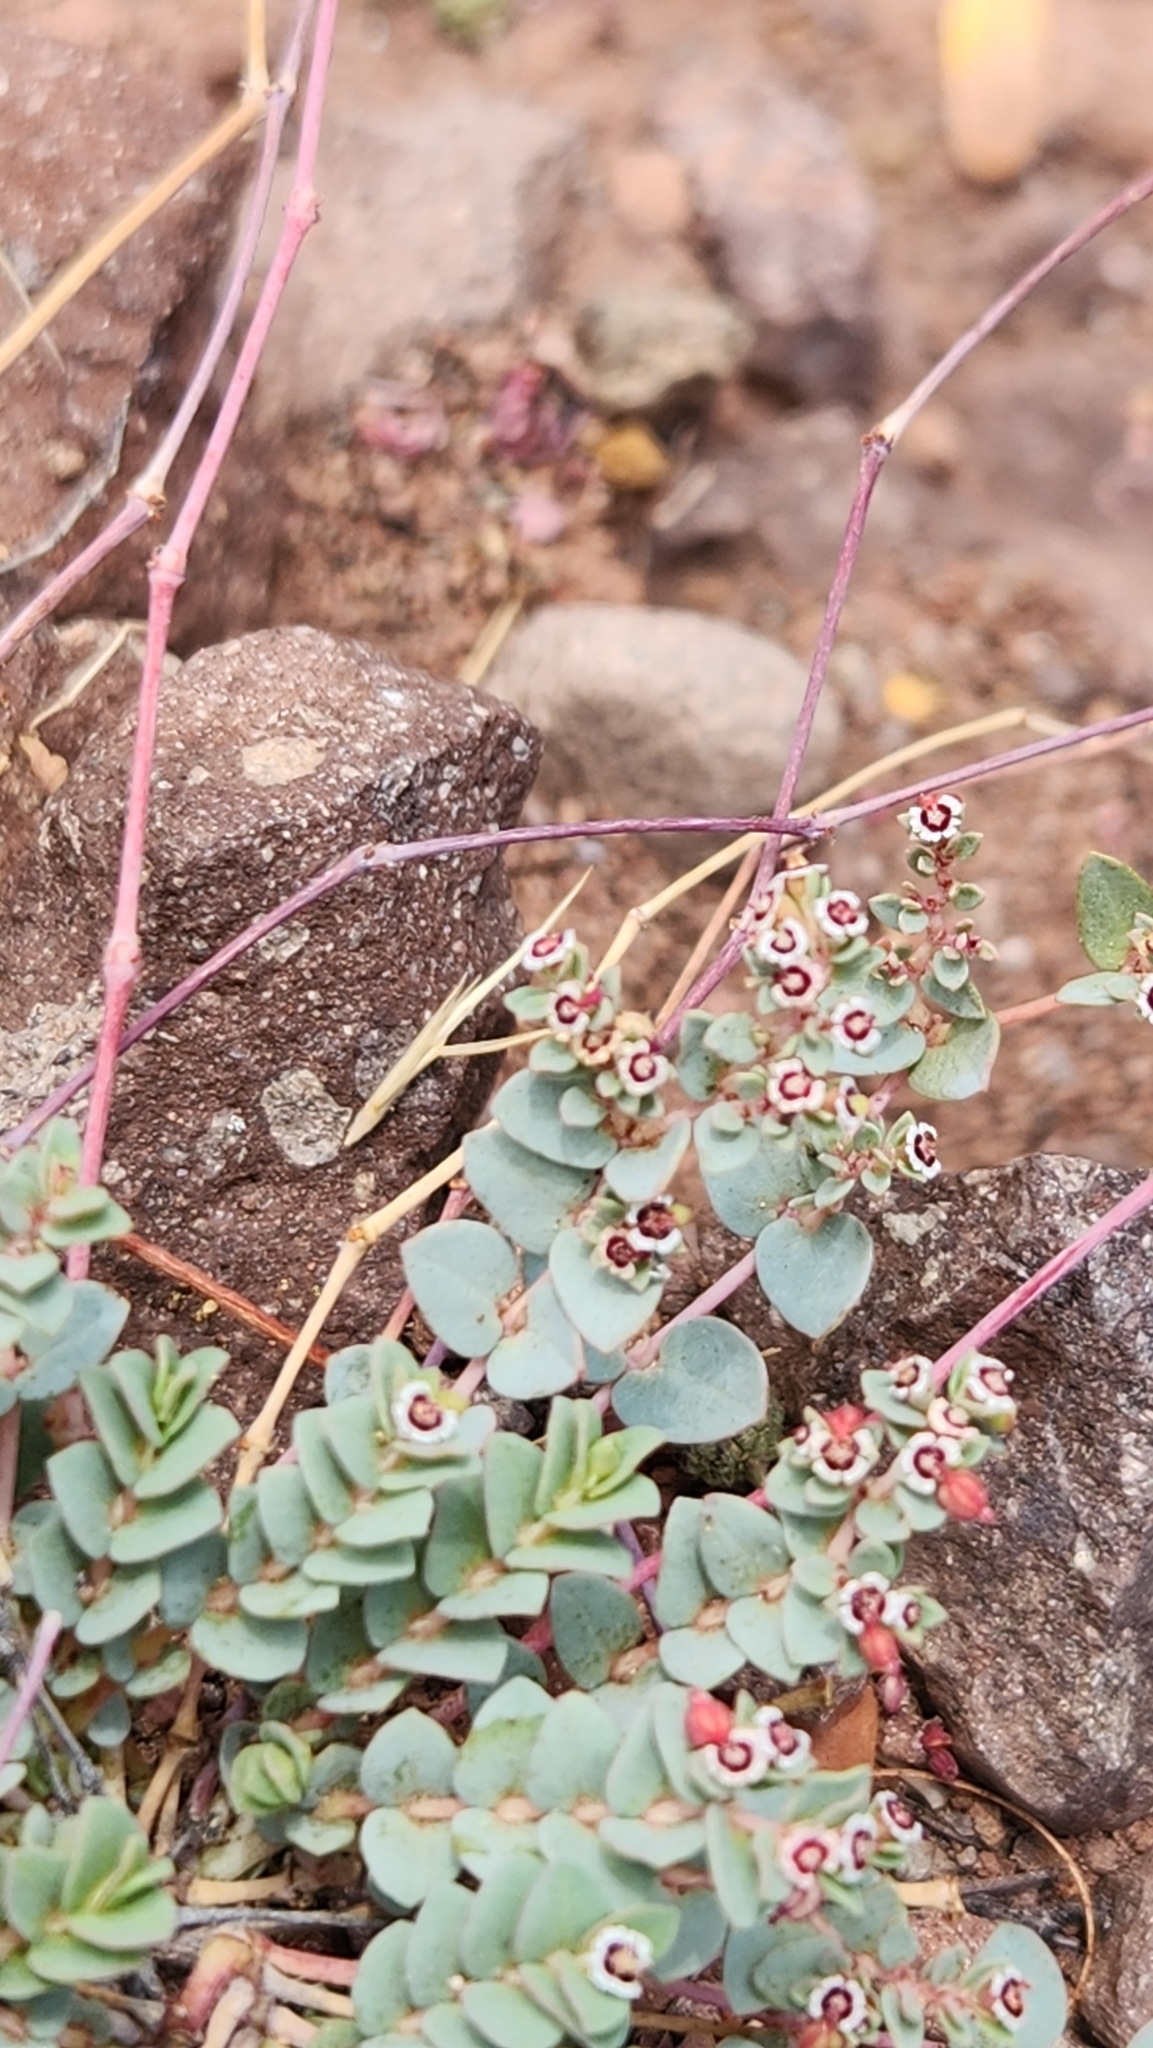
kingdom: Plantae
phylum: Tracheophyta
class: Magnoliopsida
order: Malpighiales
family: Euphorbiaceae
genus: Euphorbia
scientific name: Euphorbia polycarpa
